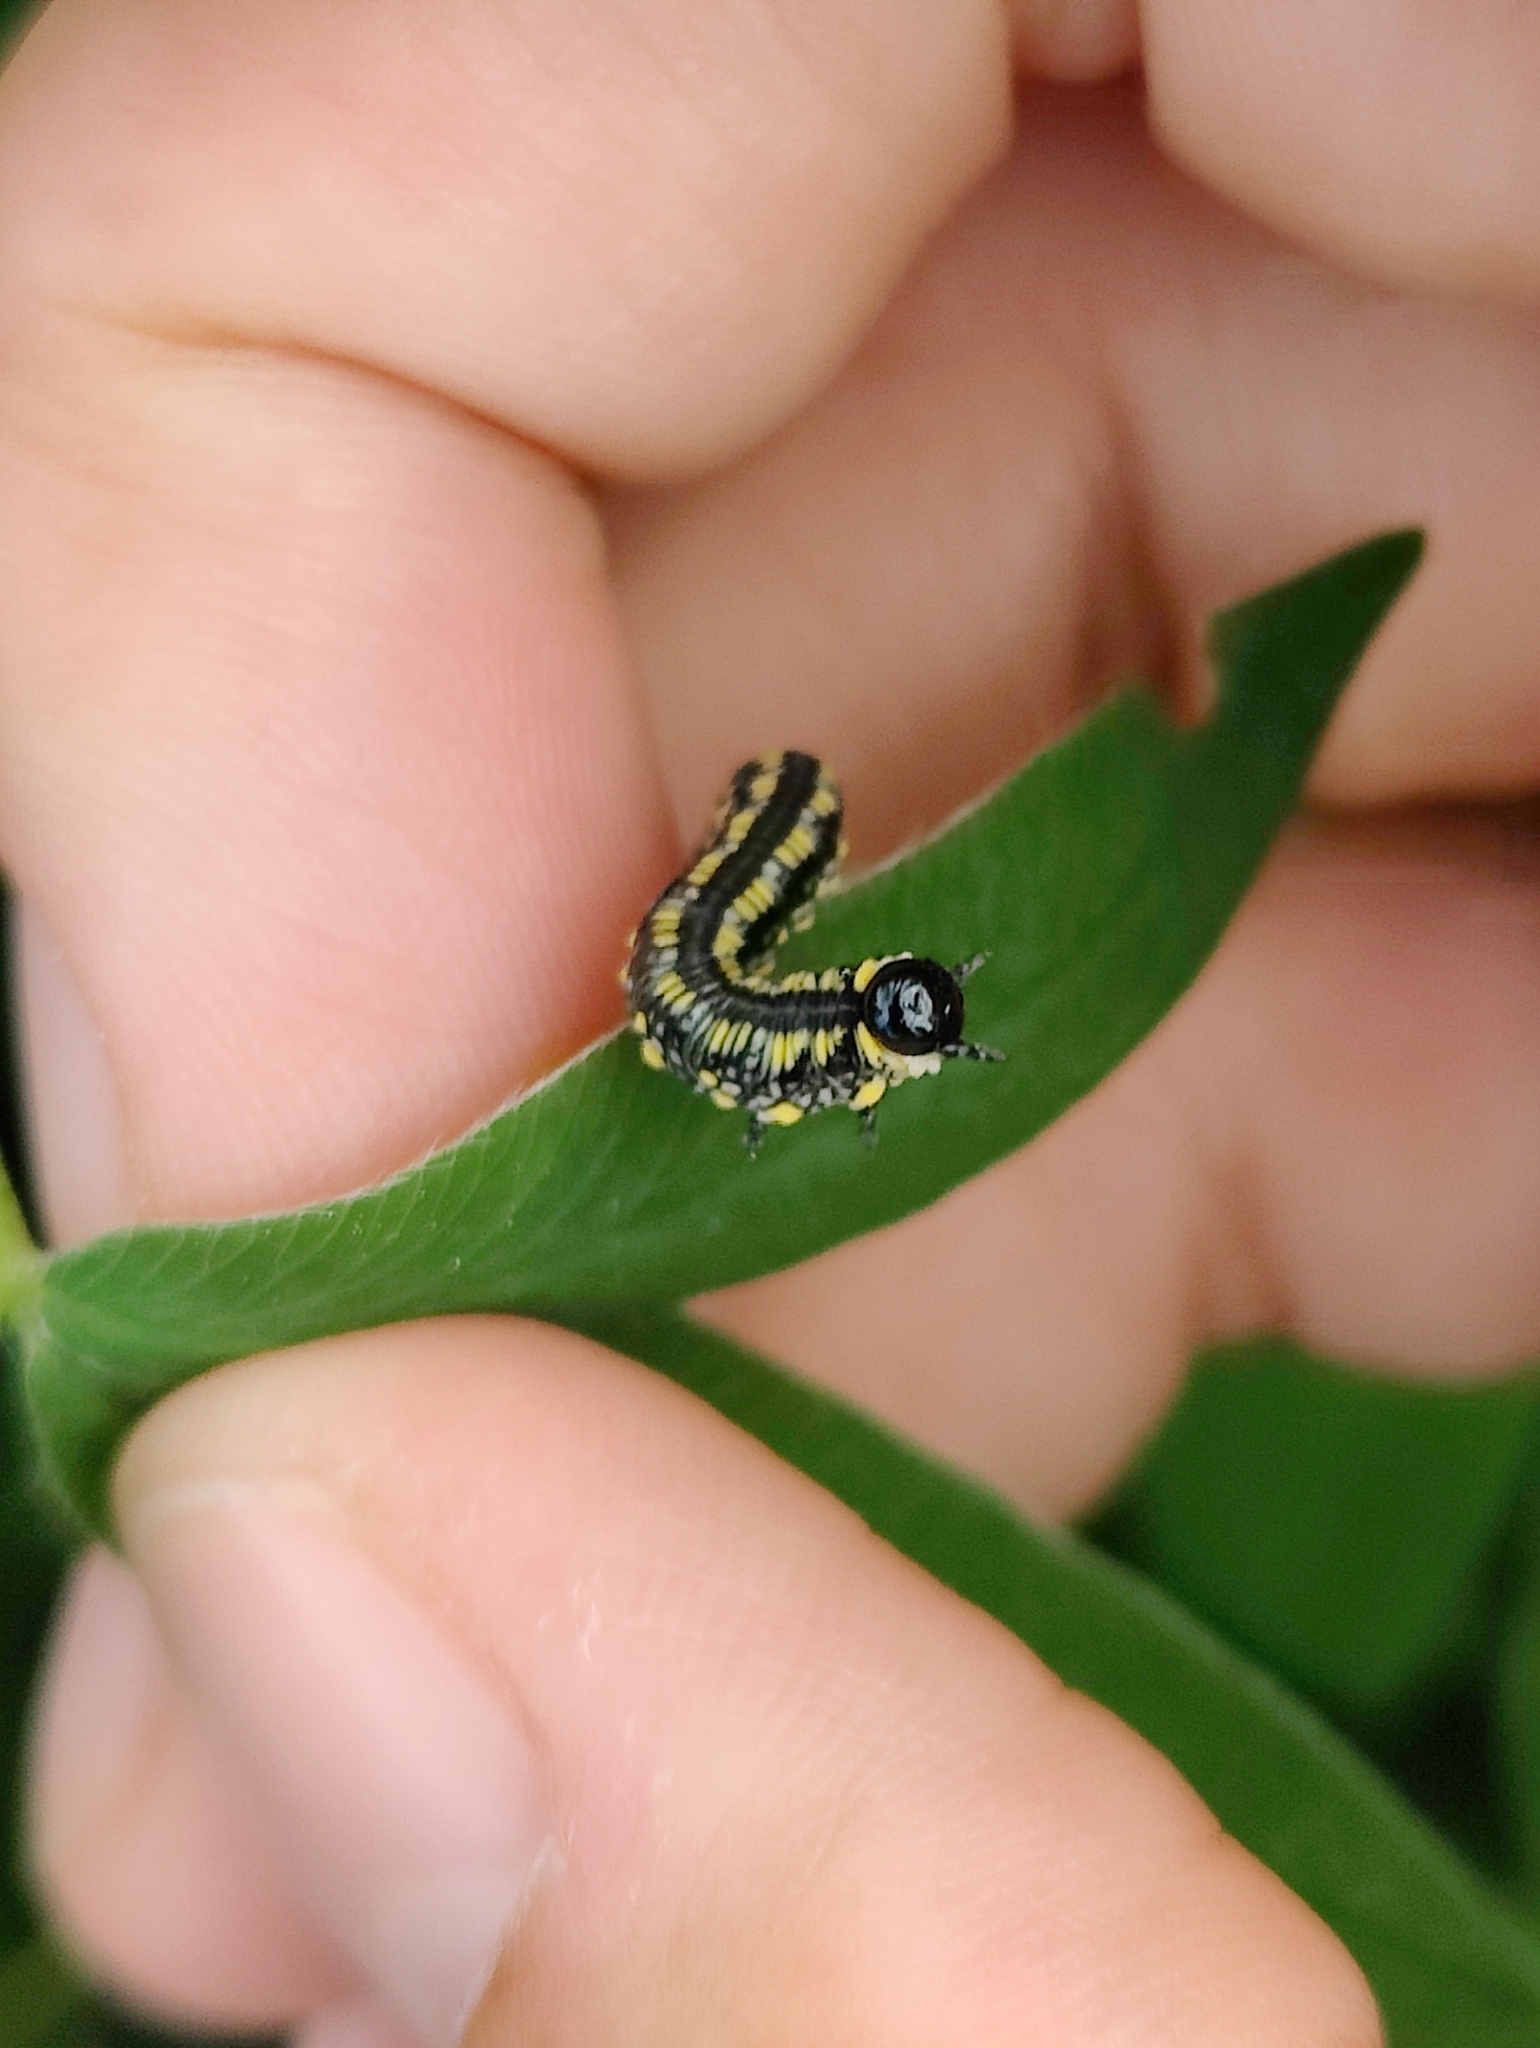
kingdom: Animalia
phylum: Arthropoda
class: Insecta
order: Hymenoptera
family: Diprionidae
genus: Diprion
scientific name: Diprion similis
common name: Pine sawfly
